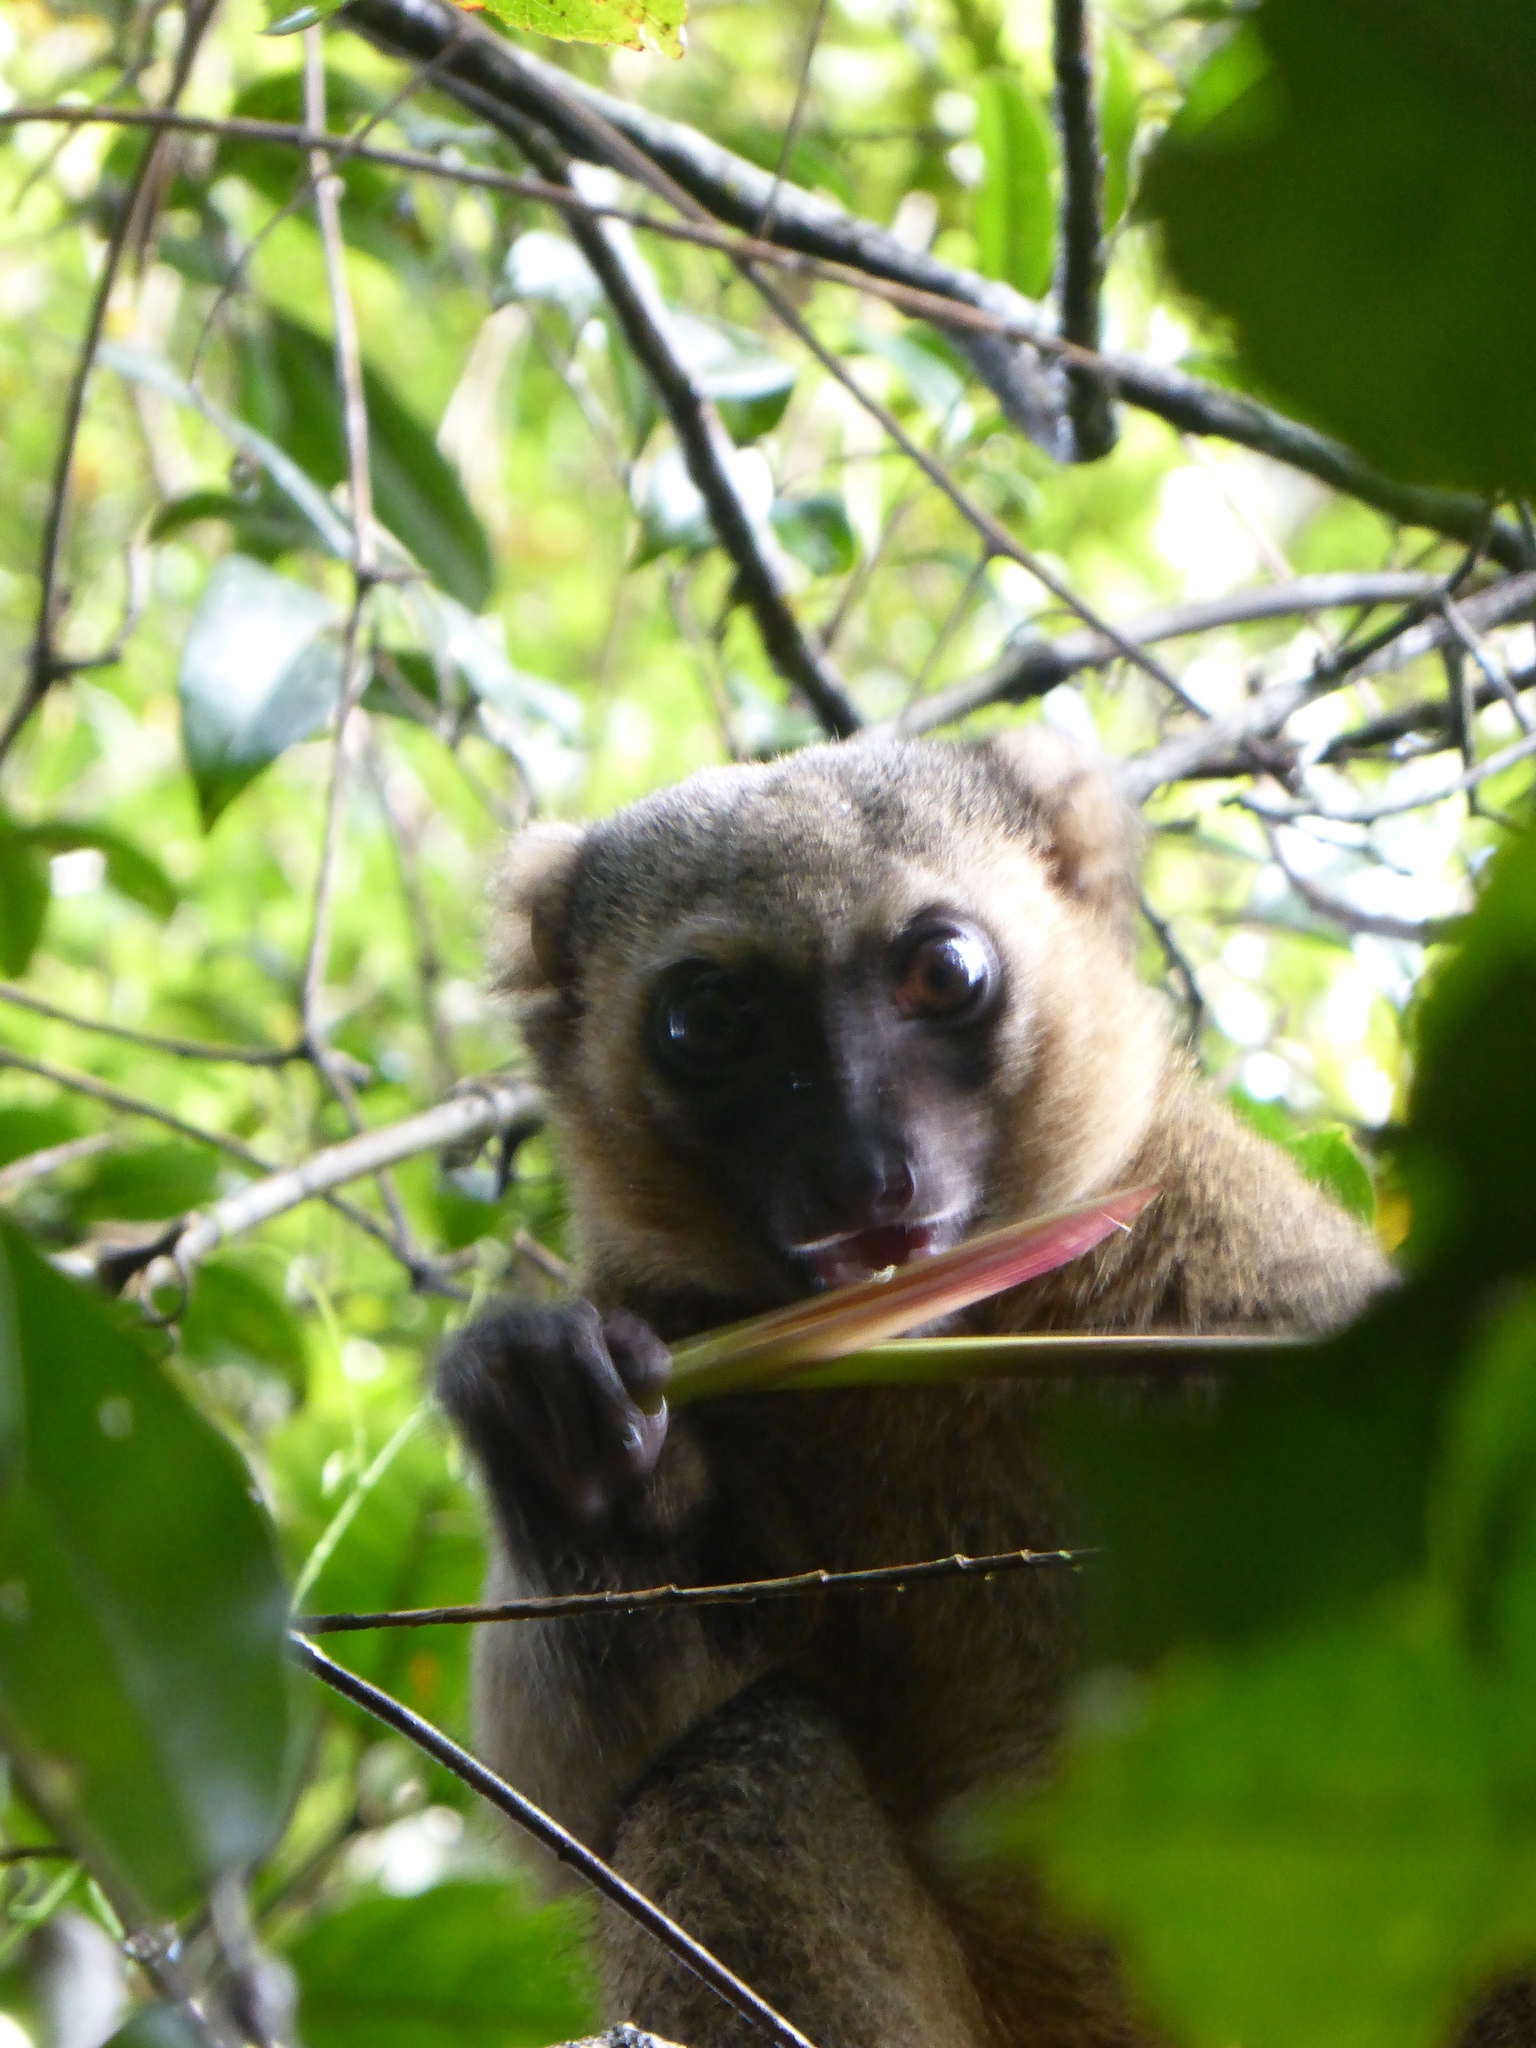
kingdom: Animalia
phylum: Chordata
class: Mammalia
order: Primates
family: Lemuridae
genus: Hapalemur
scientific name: Hapalemur aureus
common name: Golden bamboo lemur
